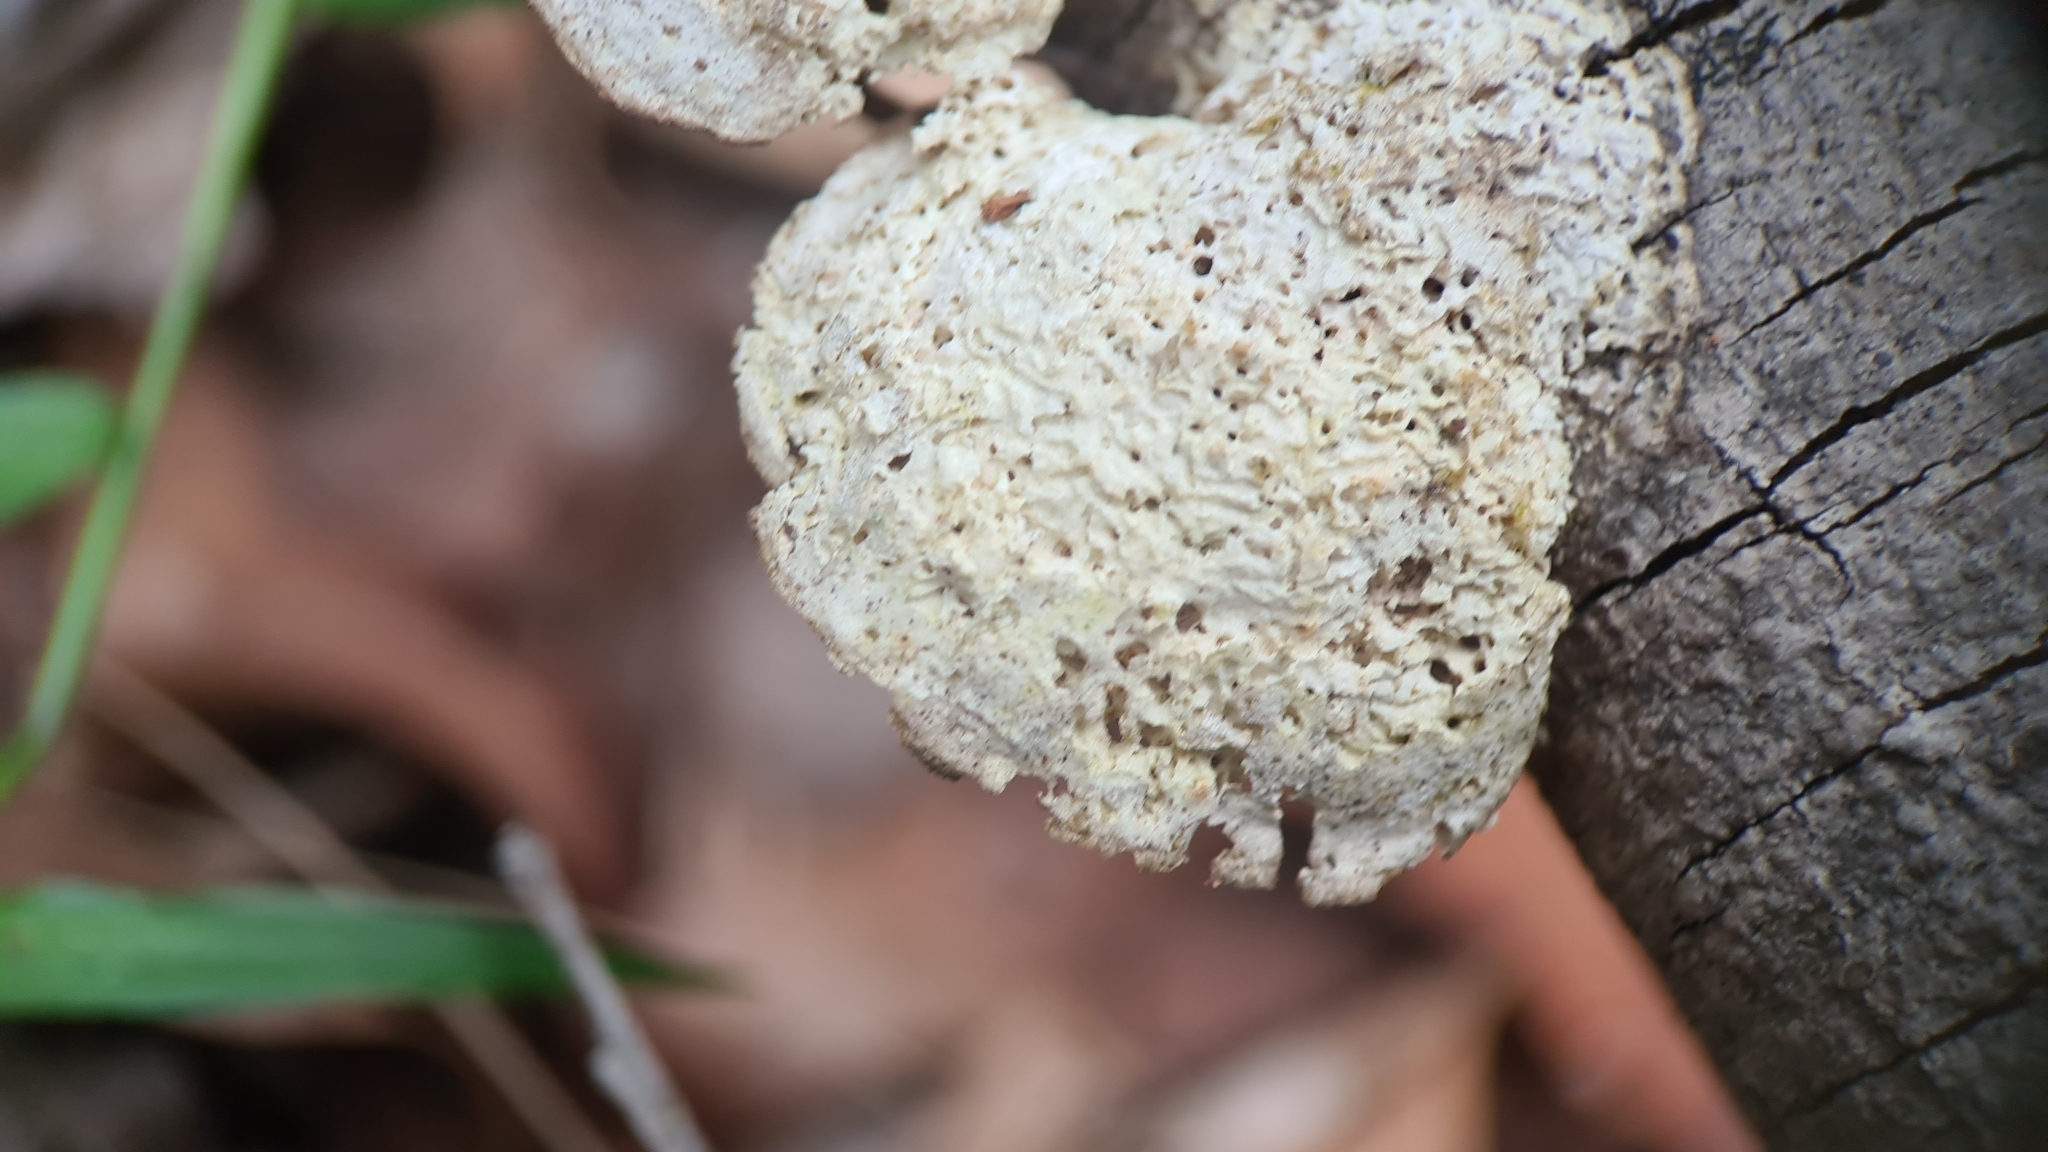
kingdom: Fungi
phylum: Basidiomycota
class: Agaricomycetes
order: Polyporales
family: Laetiporaceae
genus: Laetiporus
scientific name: Laetiporus portentosus
